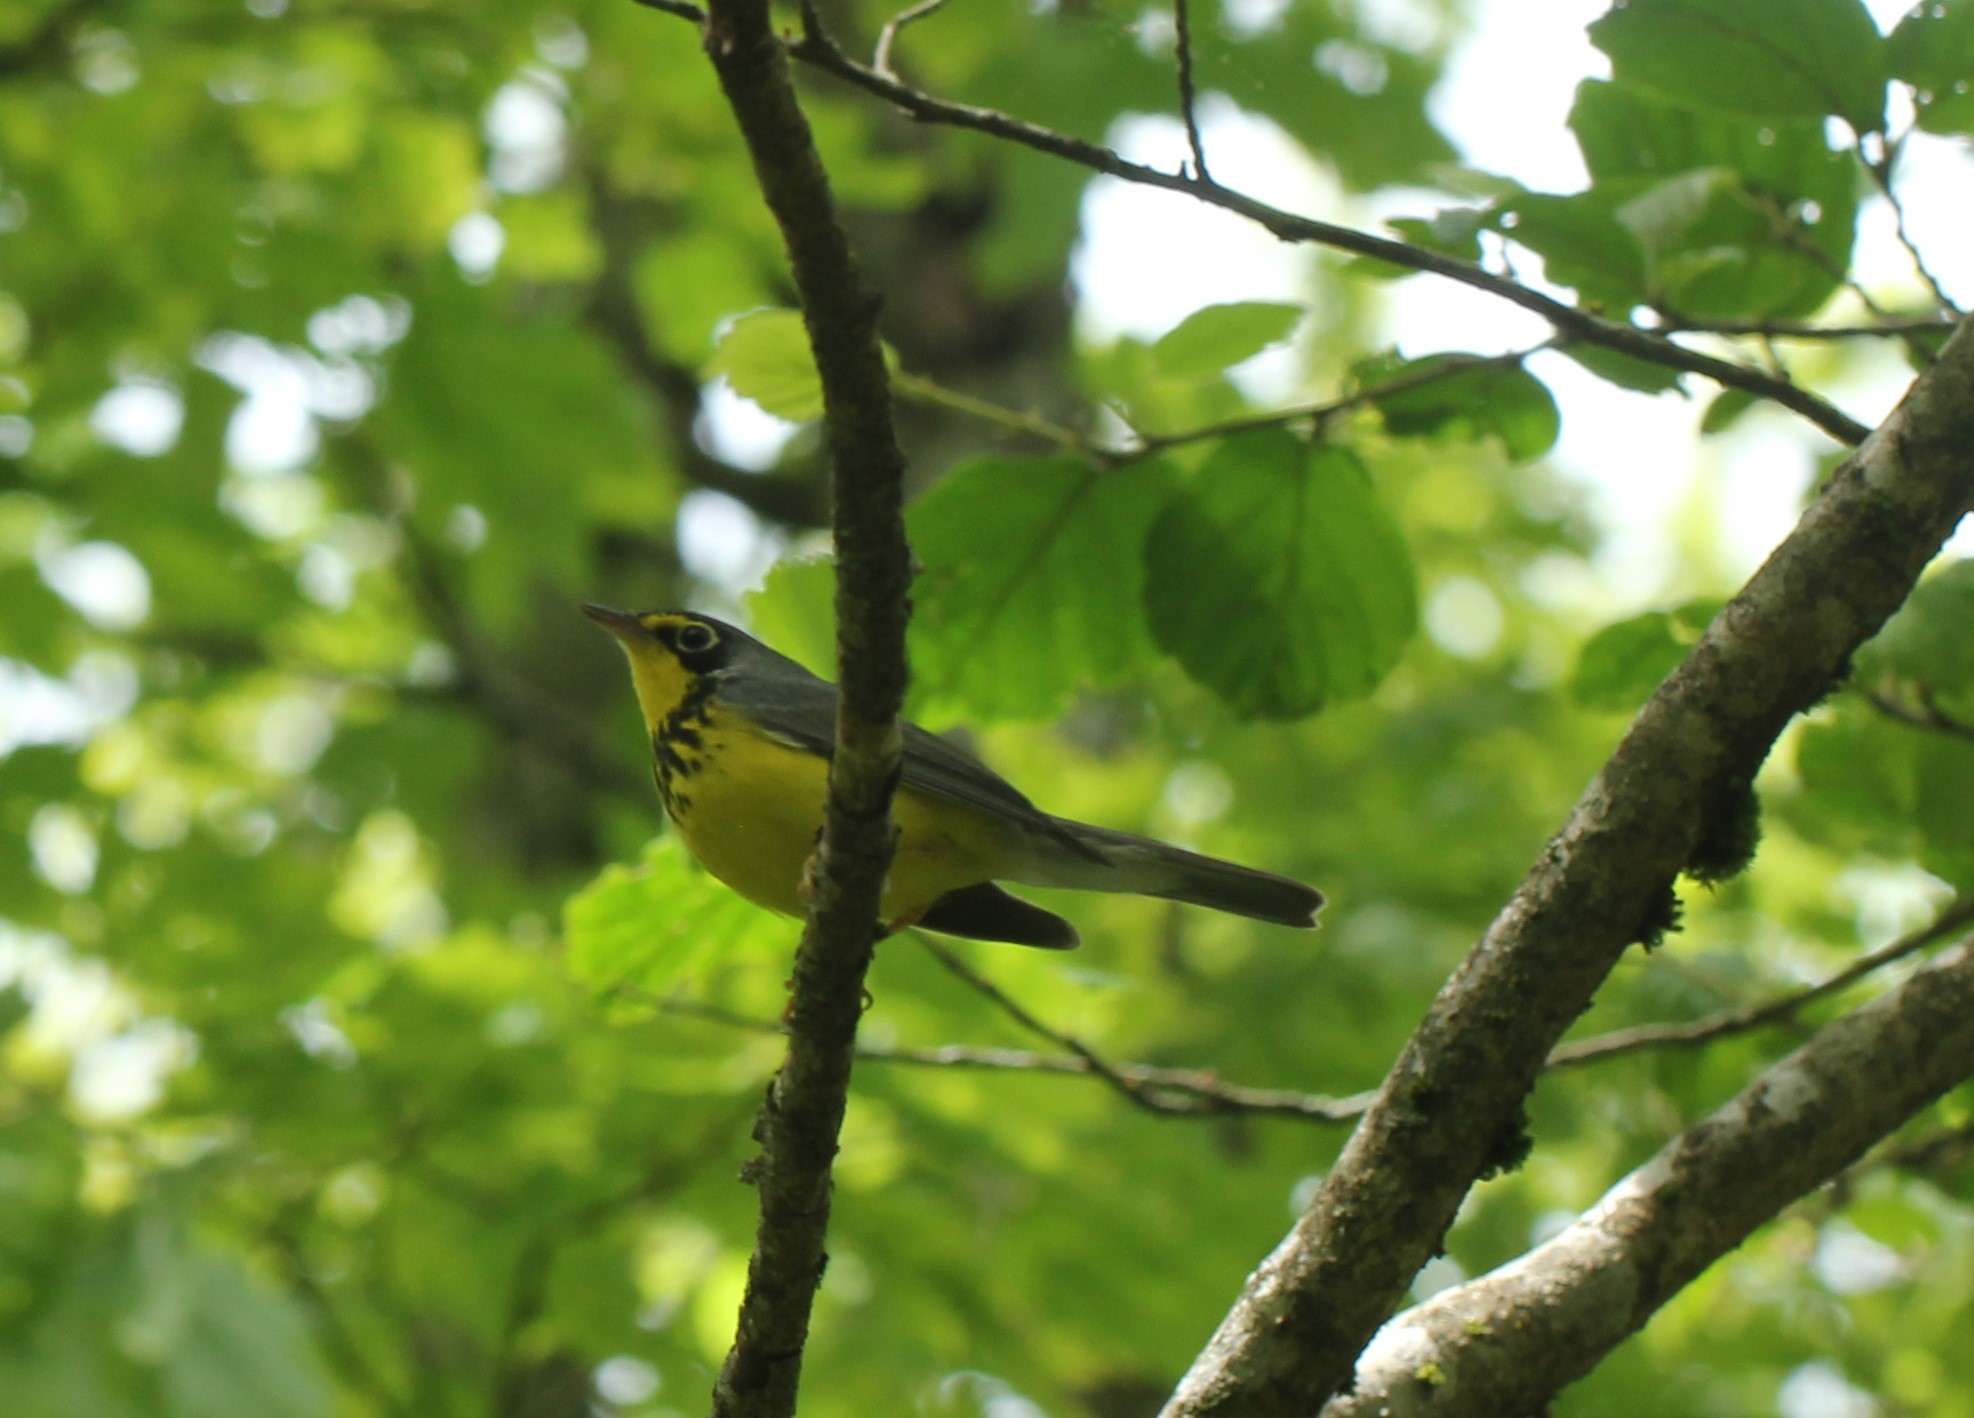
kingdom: Animalia
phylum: Chordata
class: Aves
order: Passeriformes
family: Parulidae
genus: Cardellina
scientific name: Cardellina canadensis
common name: Canada warbler
